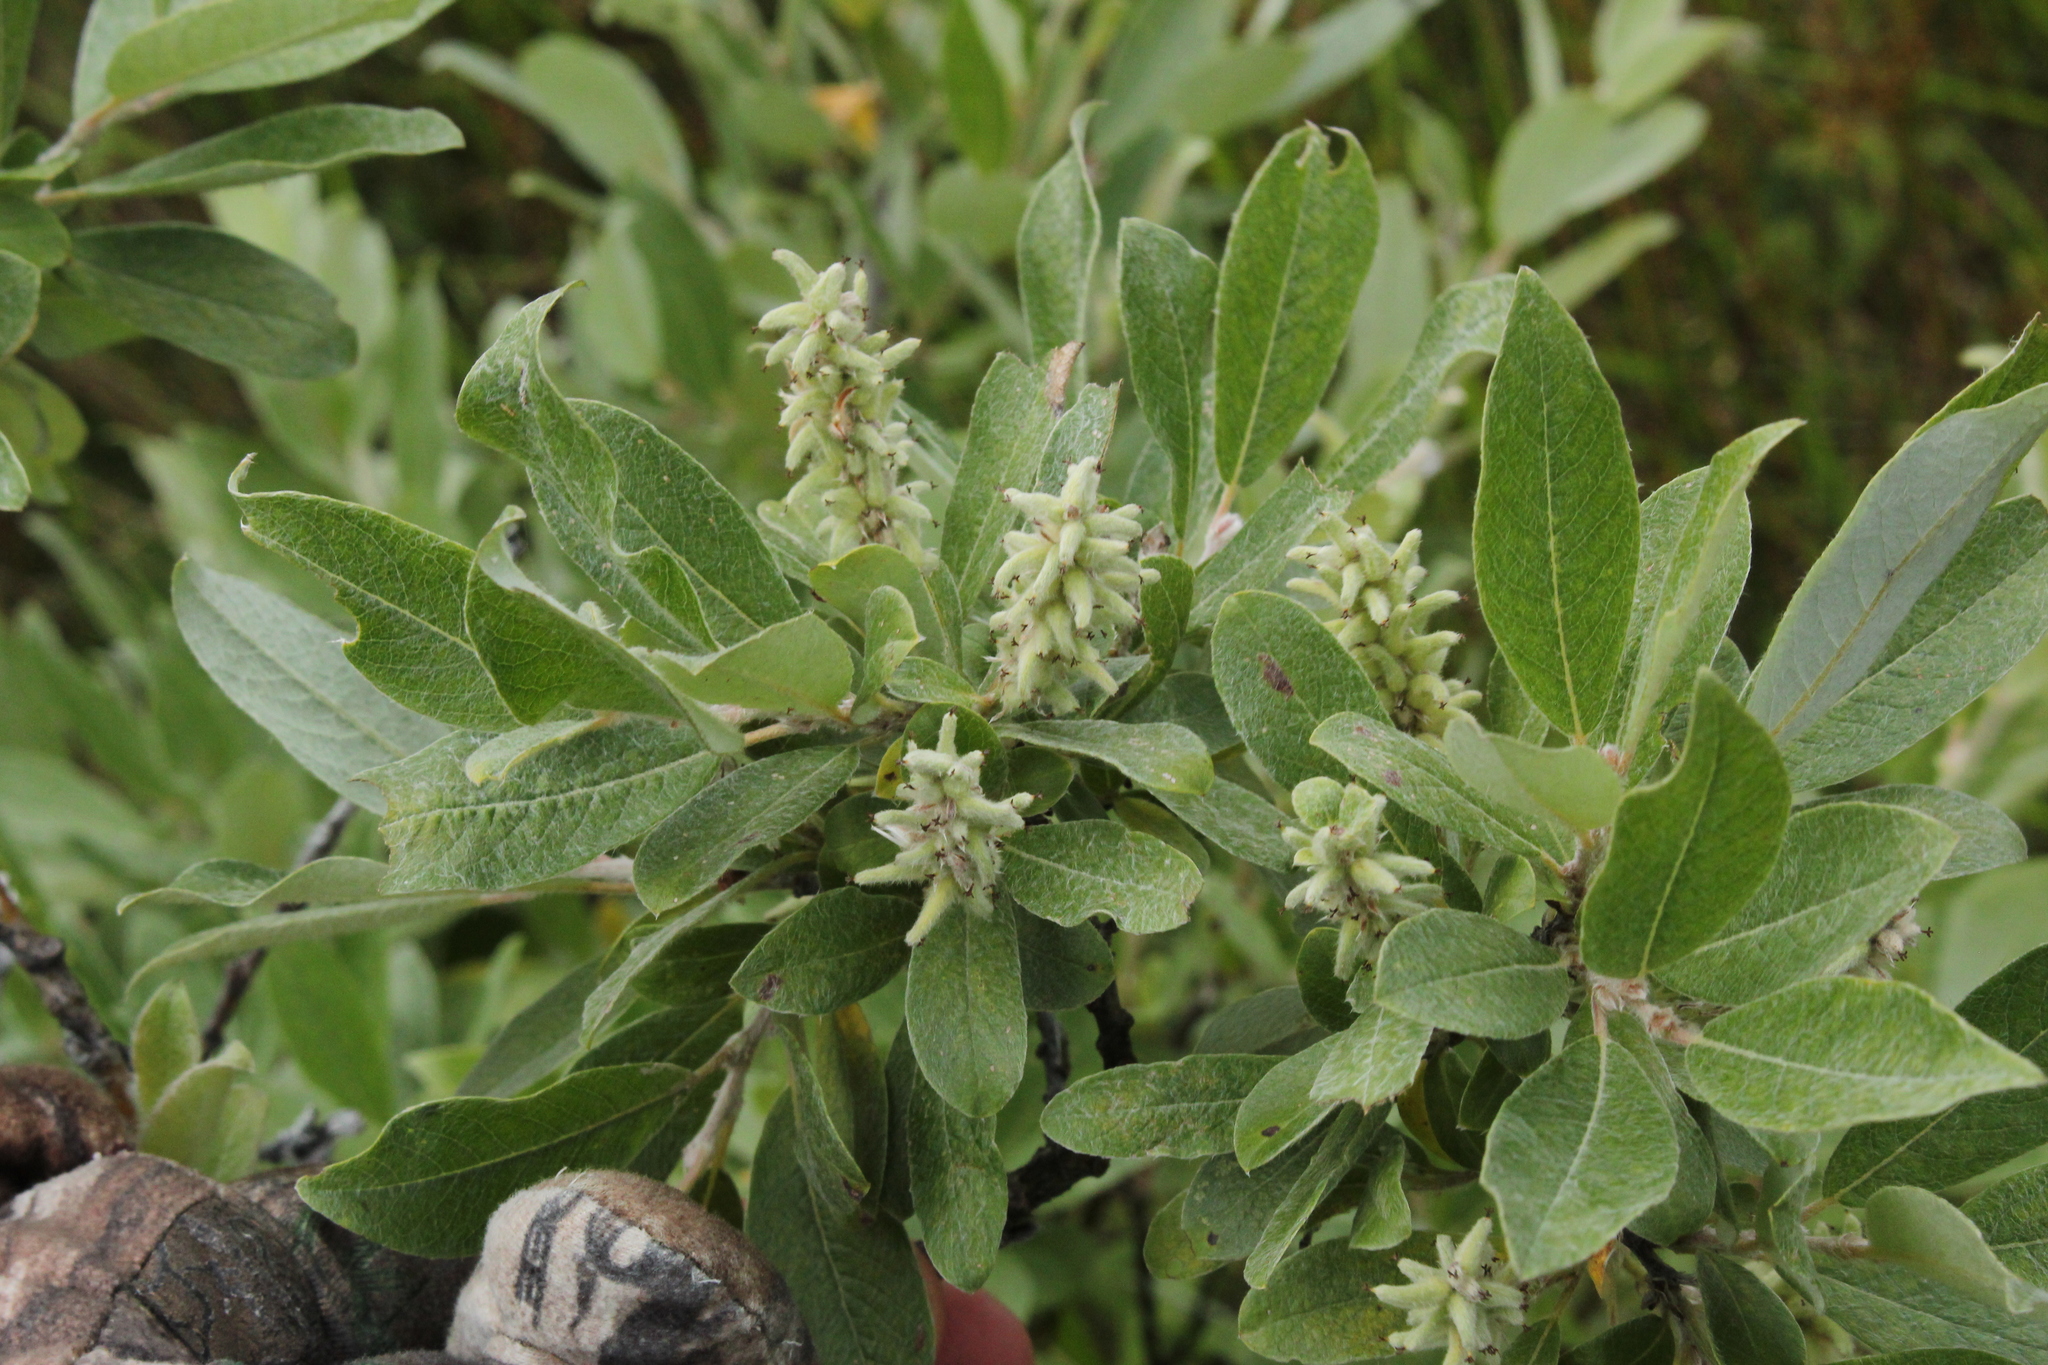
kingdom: Plantae
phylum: Tracheophyta
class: Magnoliopsida
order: Malpighiales
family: Salicaceae
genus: Salix
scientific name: Salix brachycarpa
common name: Barren-ground willow
